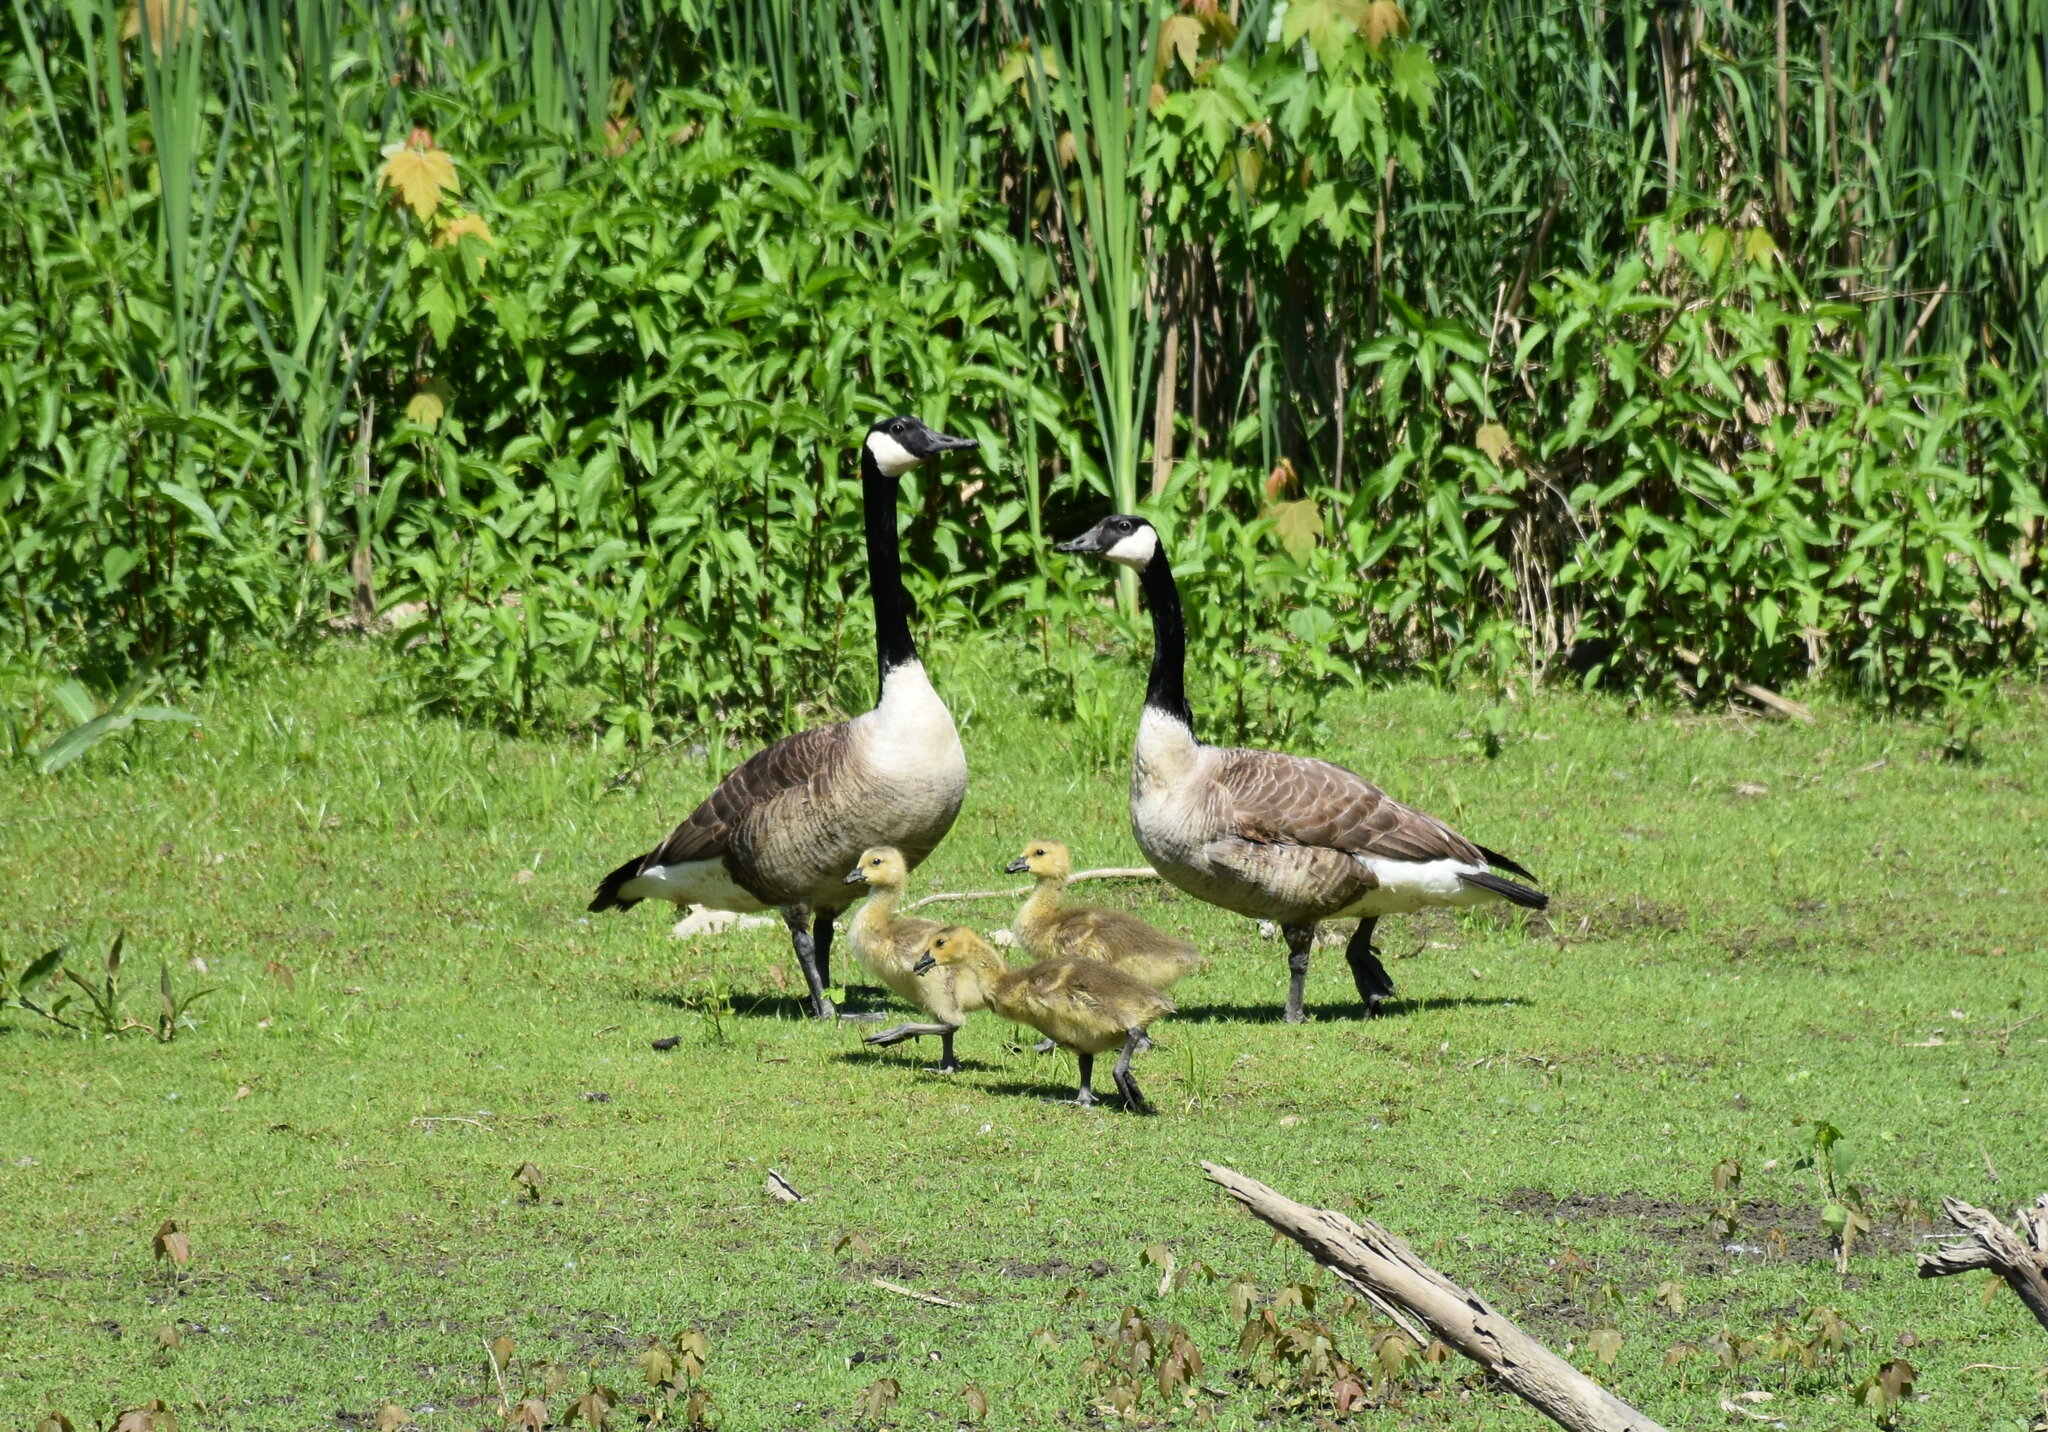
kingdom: Animalia
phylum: Chordata
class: Aves
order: Anseriformes
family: Anatidae
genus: Branta
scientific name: Branta canadensis
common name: Canada goose
